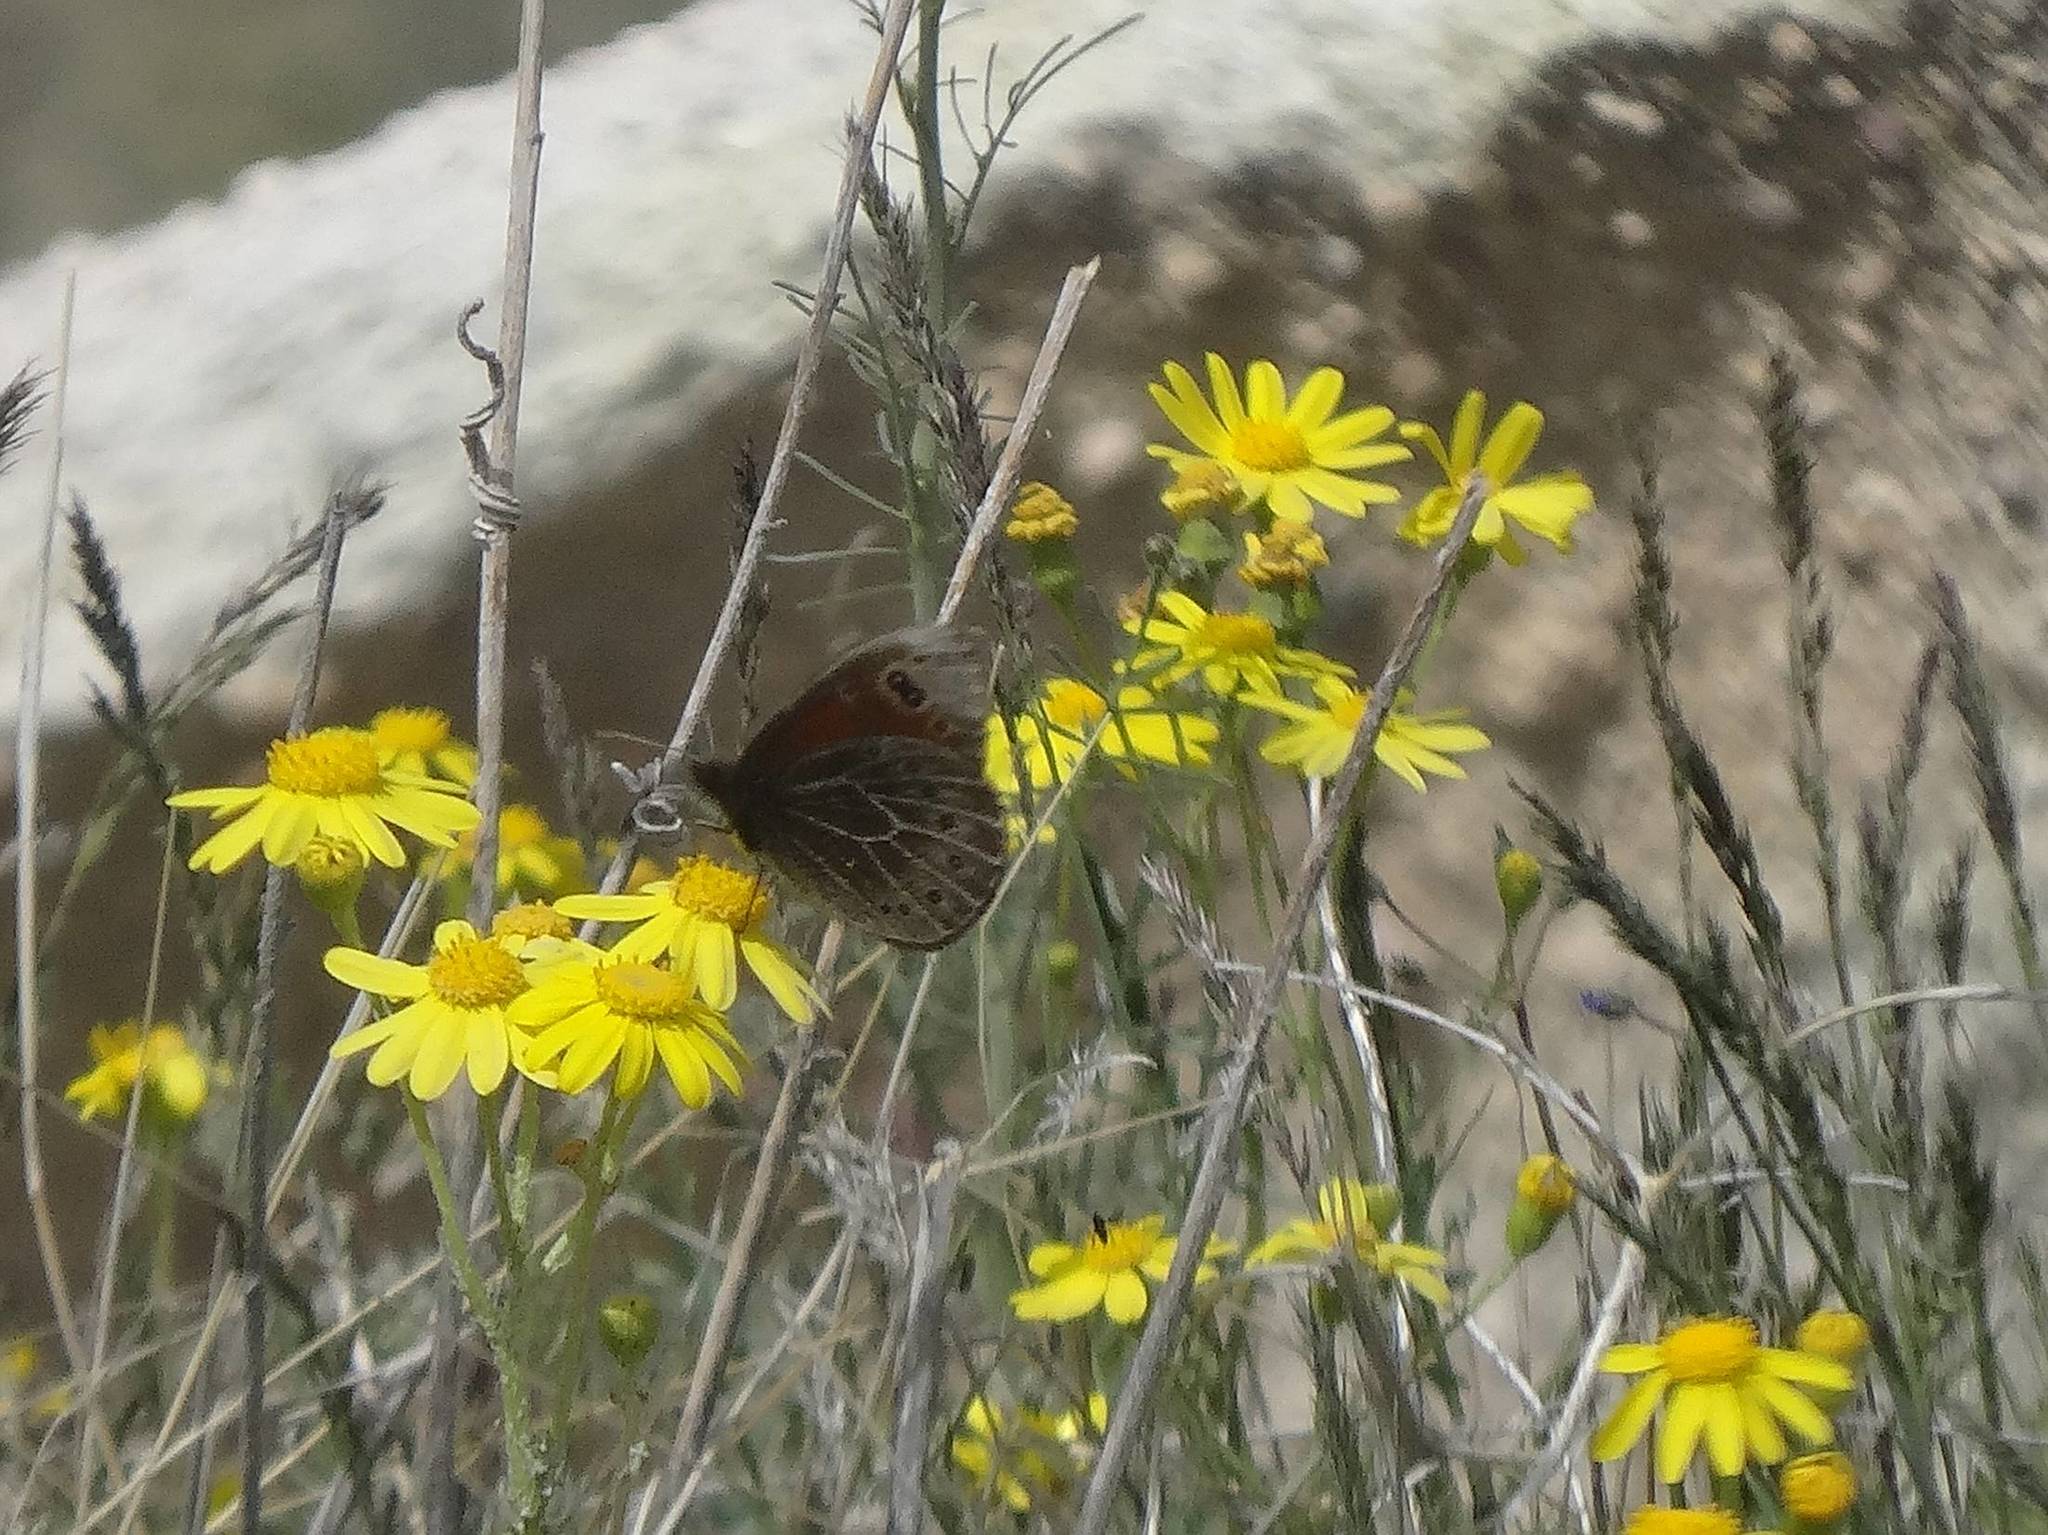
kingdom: Animalia
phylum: Arthropoda
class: Insecta
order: Lepidoptera
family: Nymphalidae
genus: Proterebia
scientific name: Proterebia afra
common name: Dalmatian ringlet
